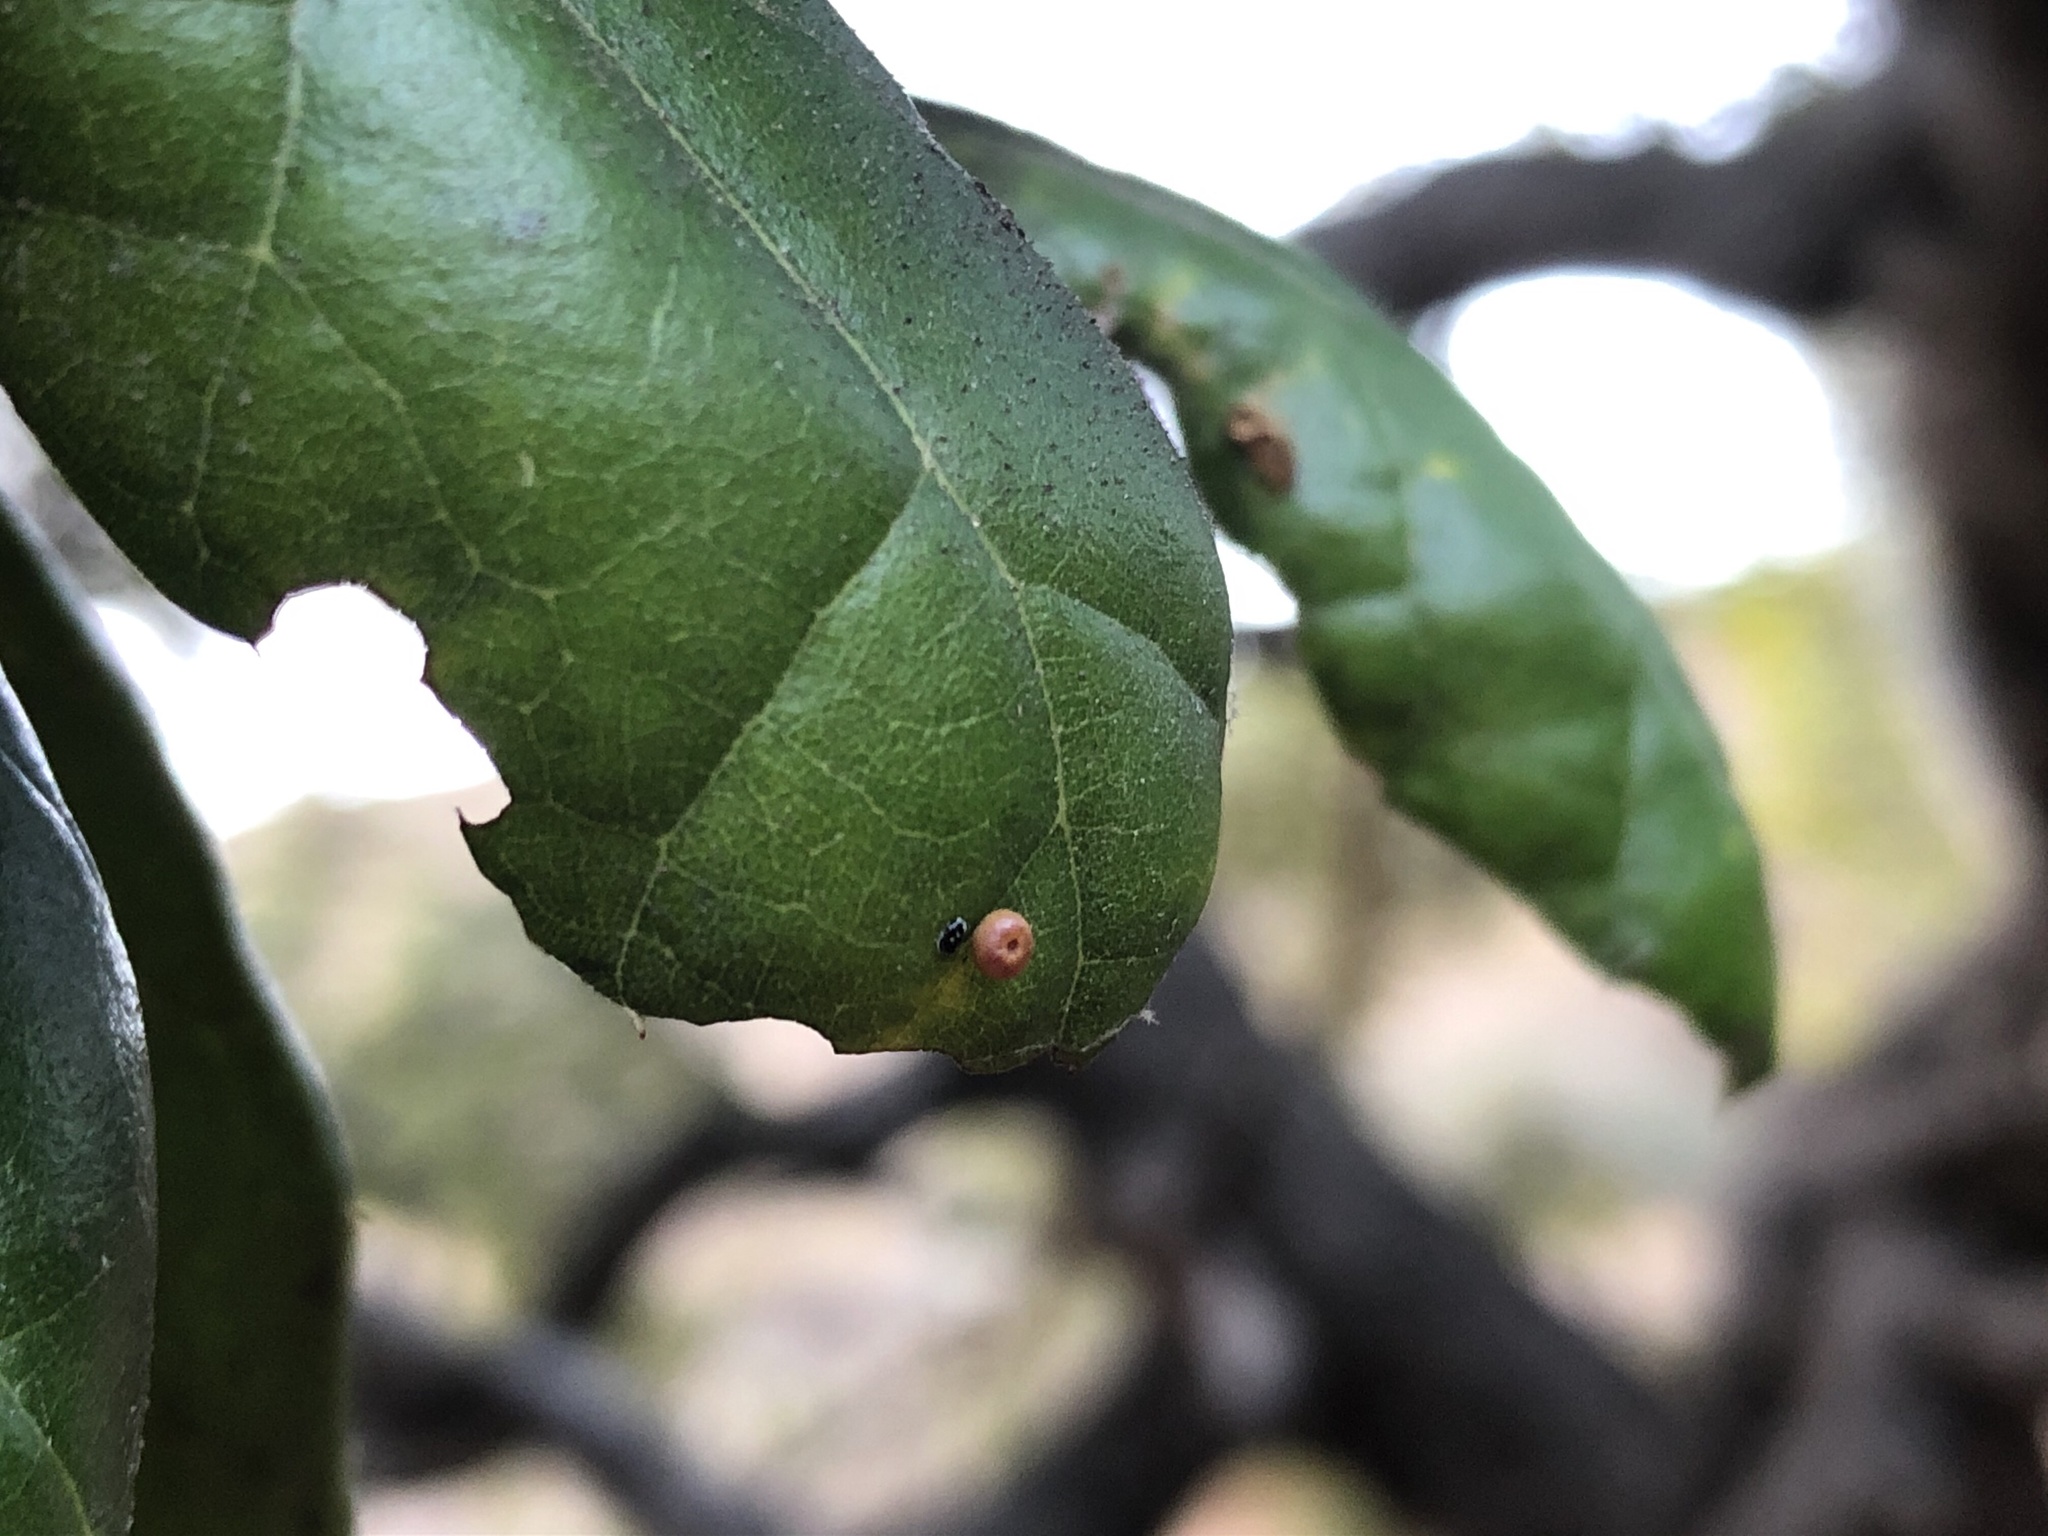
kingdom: Plantae
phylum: Tracheophyta
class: Magnoliopsida
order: Fagales
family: Fagaceae
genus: Quercus
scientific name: Quercus agrifolia
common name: California live oak
